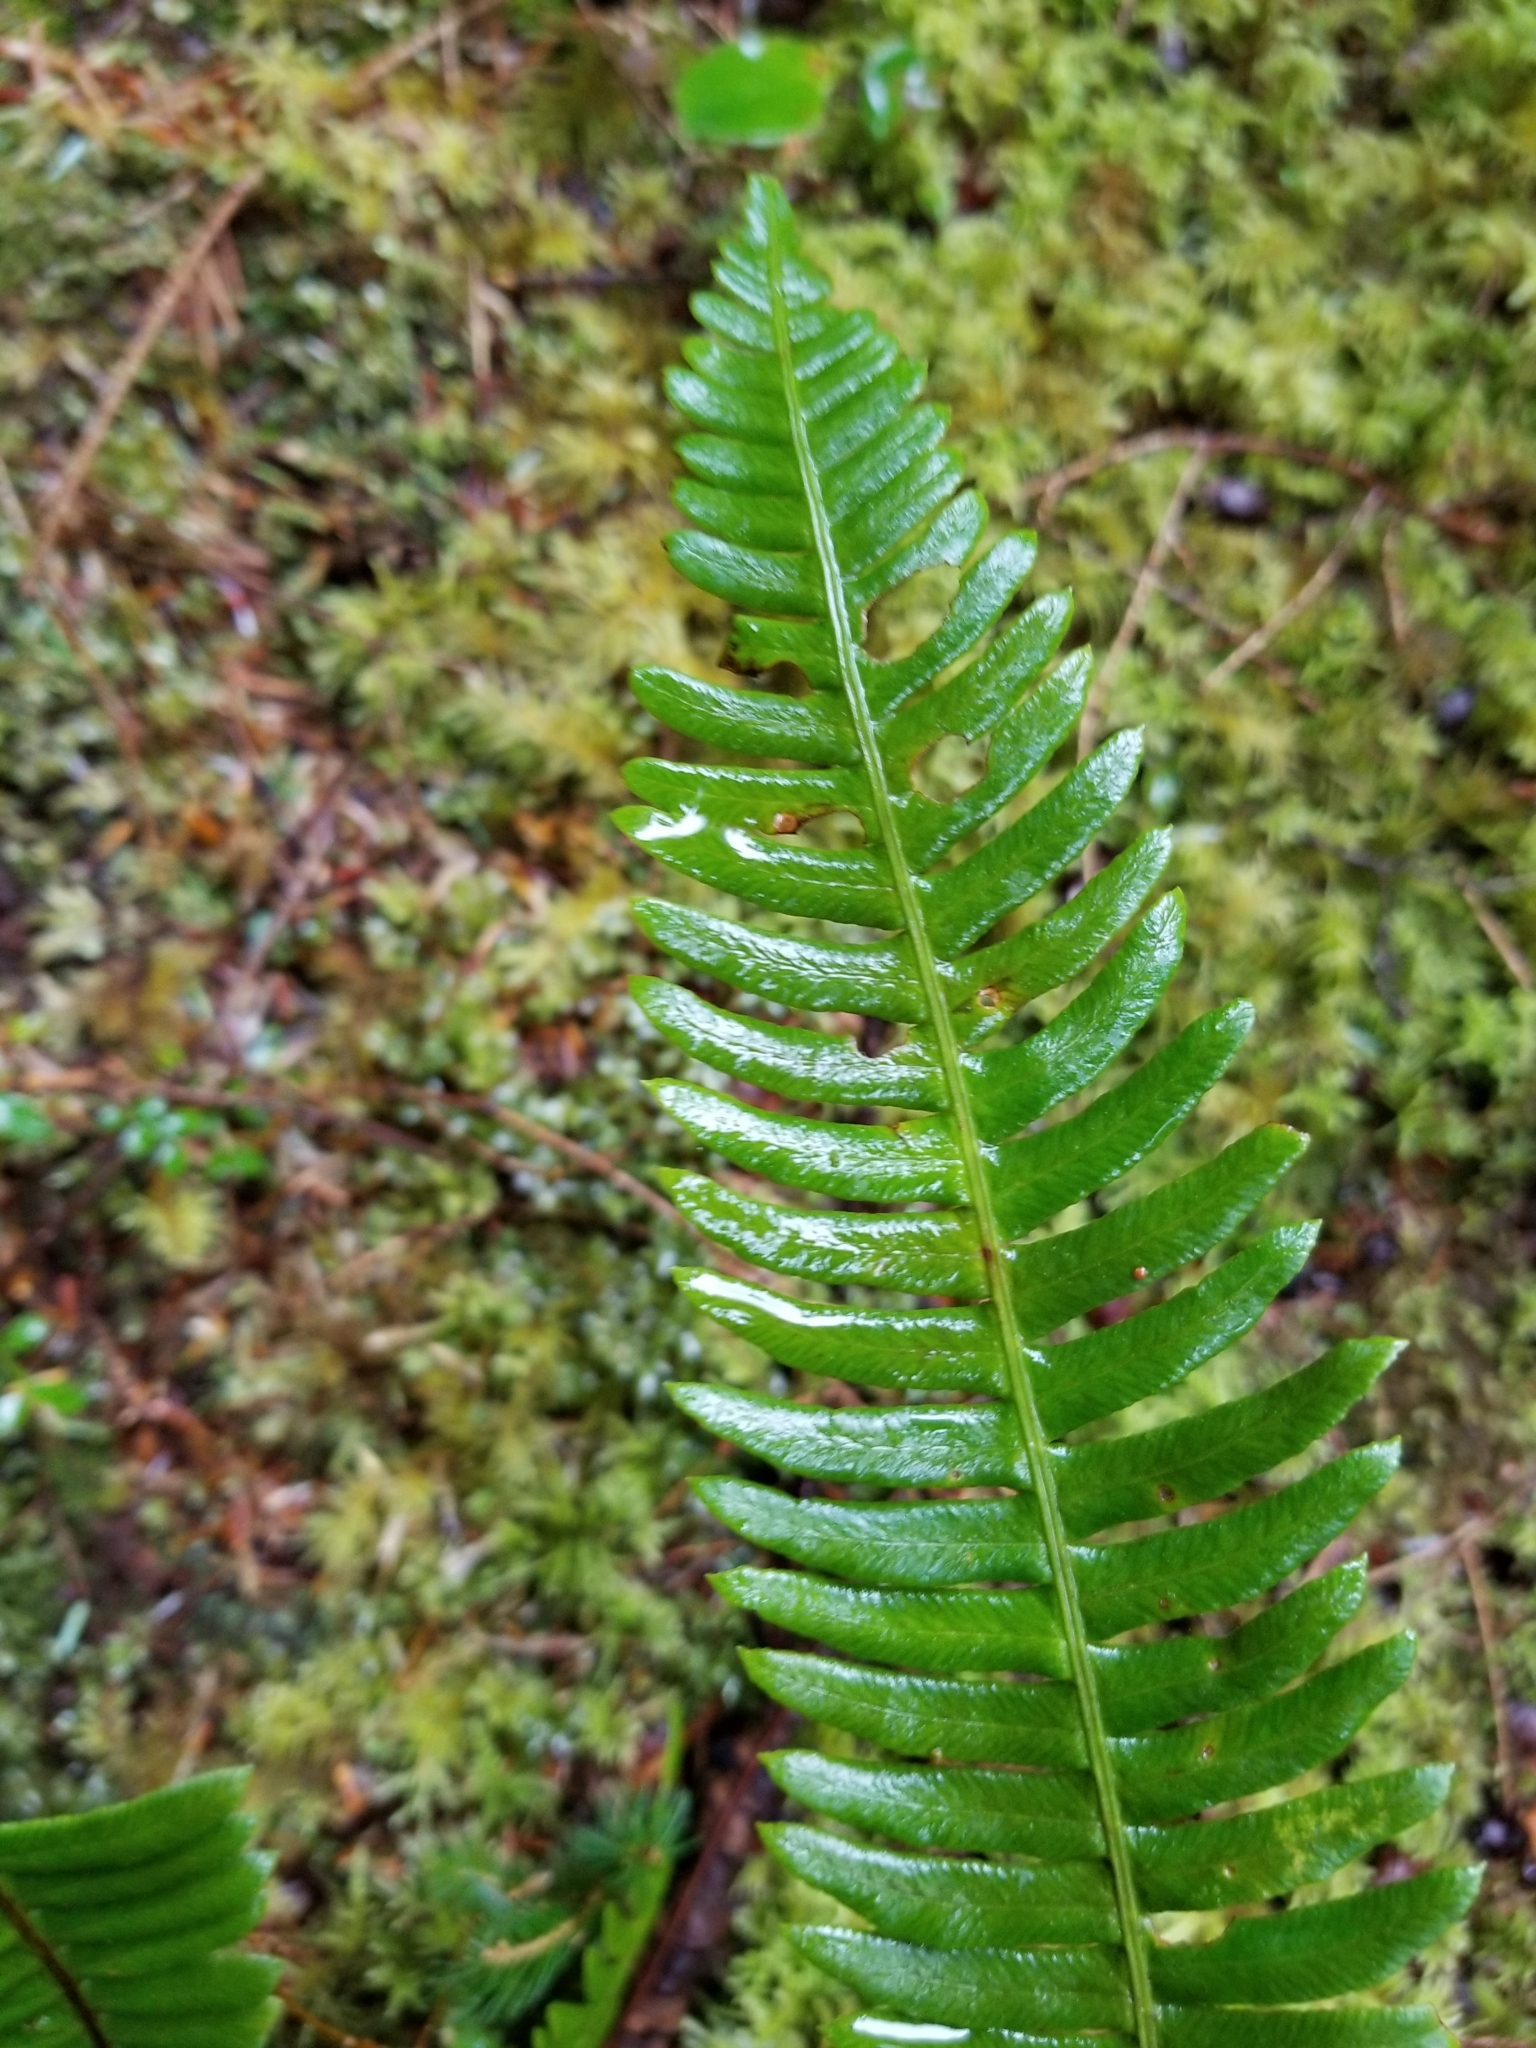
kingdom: Plantae
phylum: Tracheophyta
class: Polypodiopsida
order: Polypodiales
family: Blechnaceae
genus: Struthiopteris
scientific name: Struthiopteris spicant
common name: Deer fern
